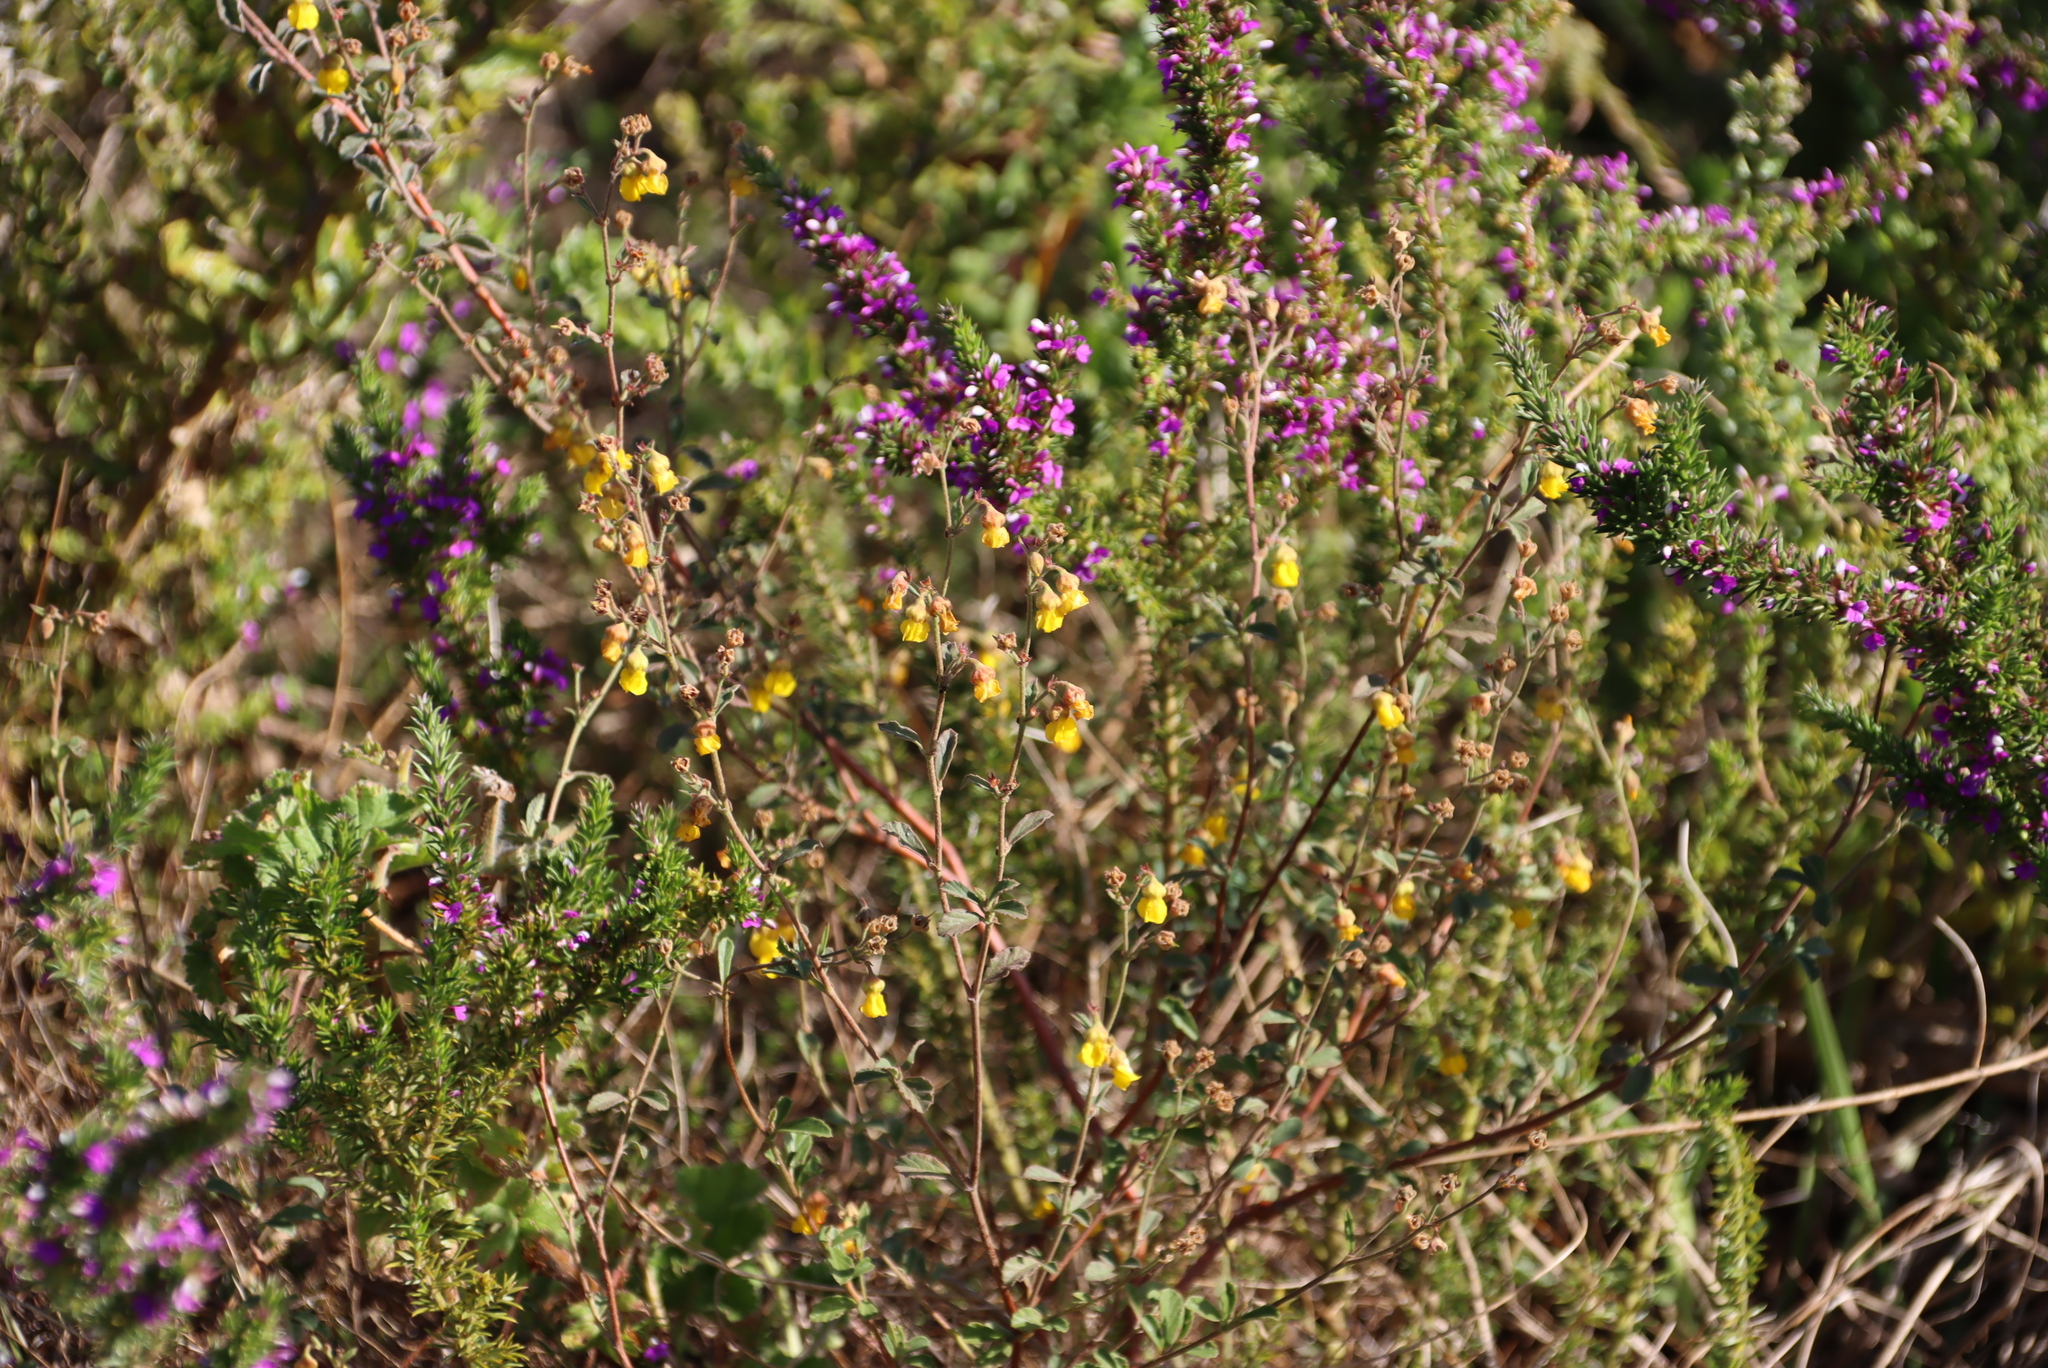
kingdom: Plantae
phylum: Tracheophyta
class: Magnoliopsida
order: Malvales
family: Malvaceae
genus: Hermannia
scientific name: Hermannia multiflora
